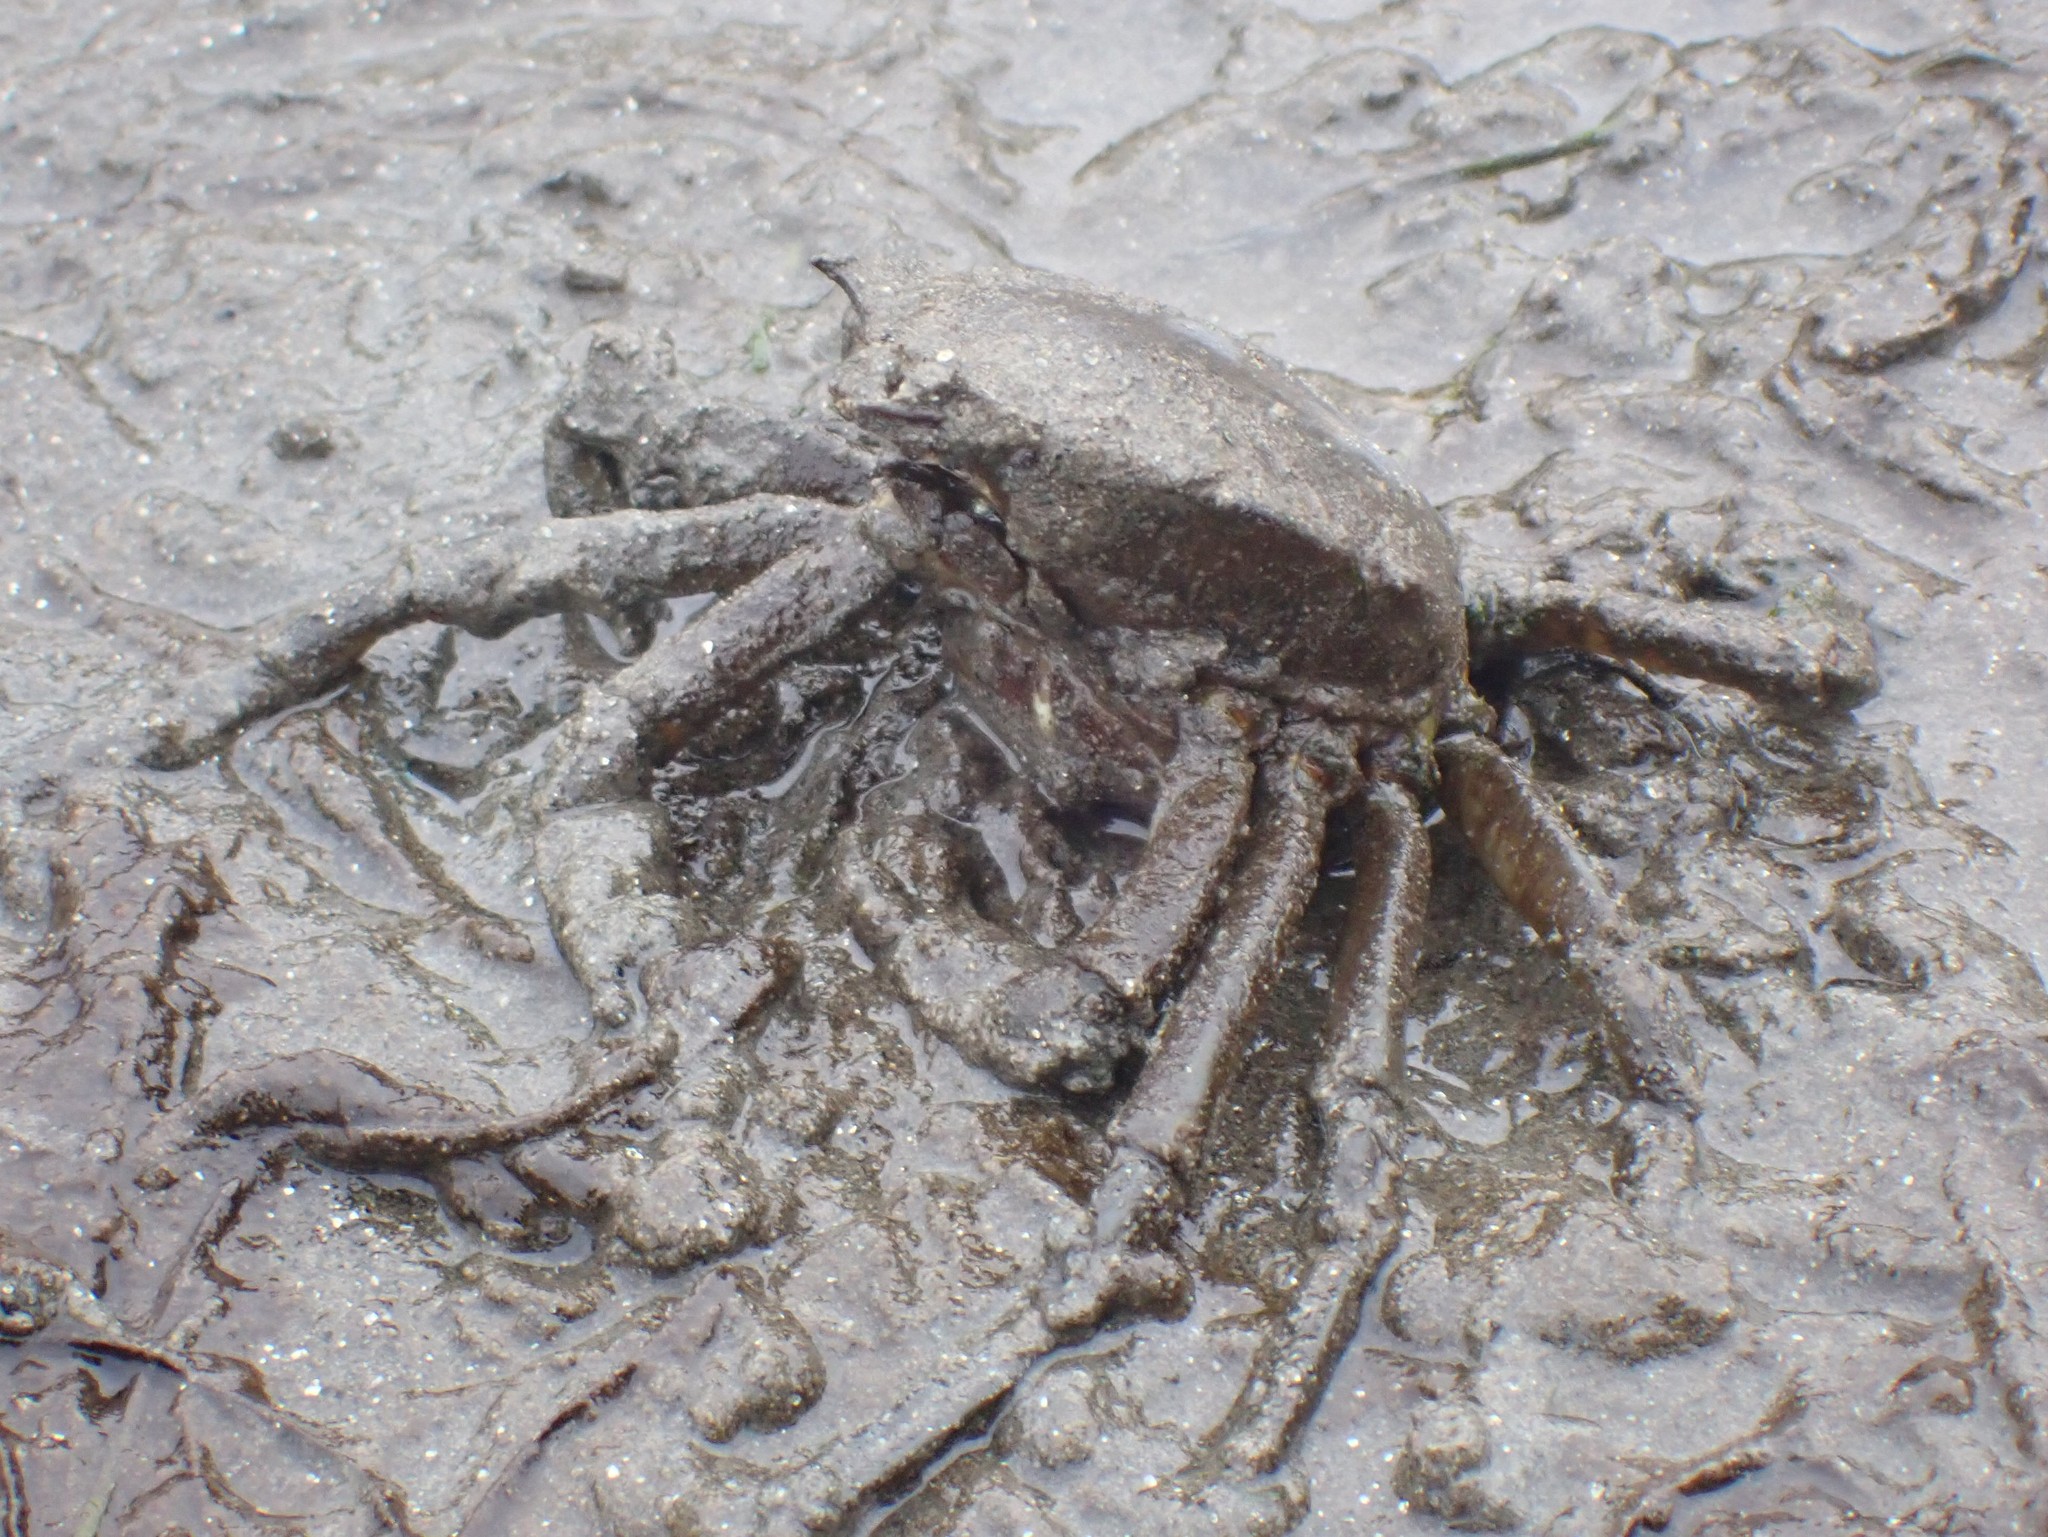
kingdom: Animalia
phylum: Arthropoda
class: Malacostraca
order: Decapoda
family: Epialtidae
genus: Pugettia
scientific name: Pugettia producta
